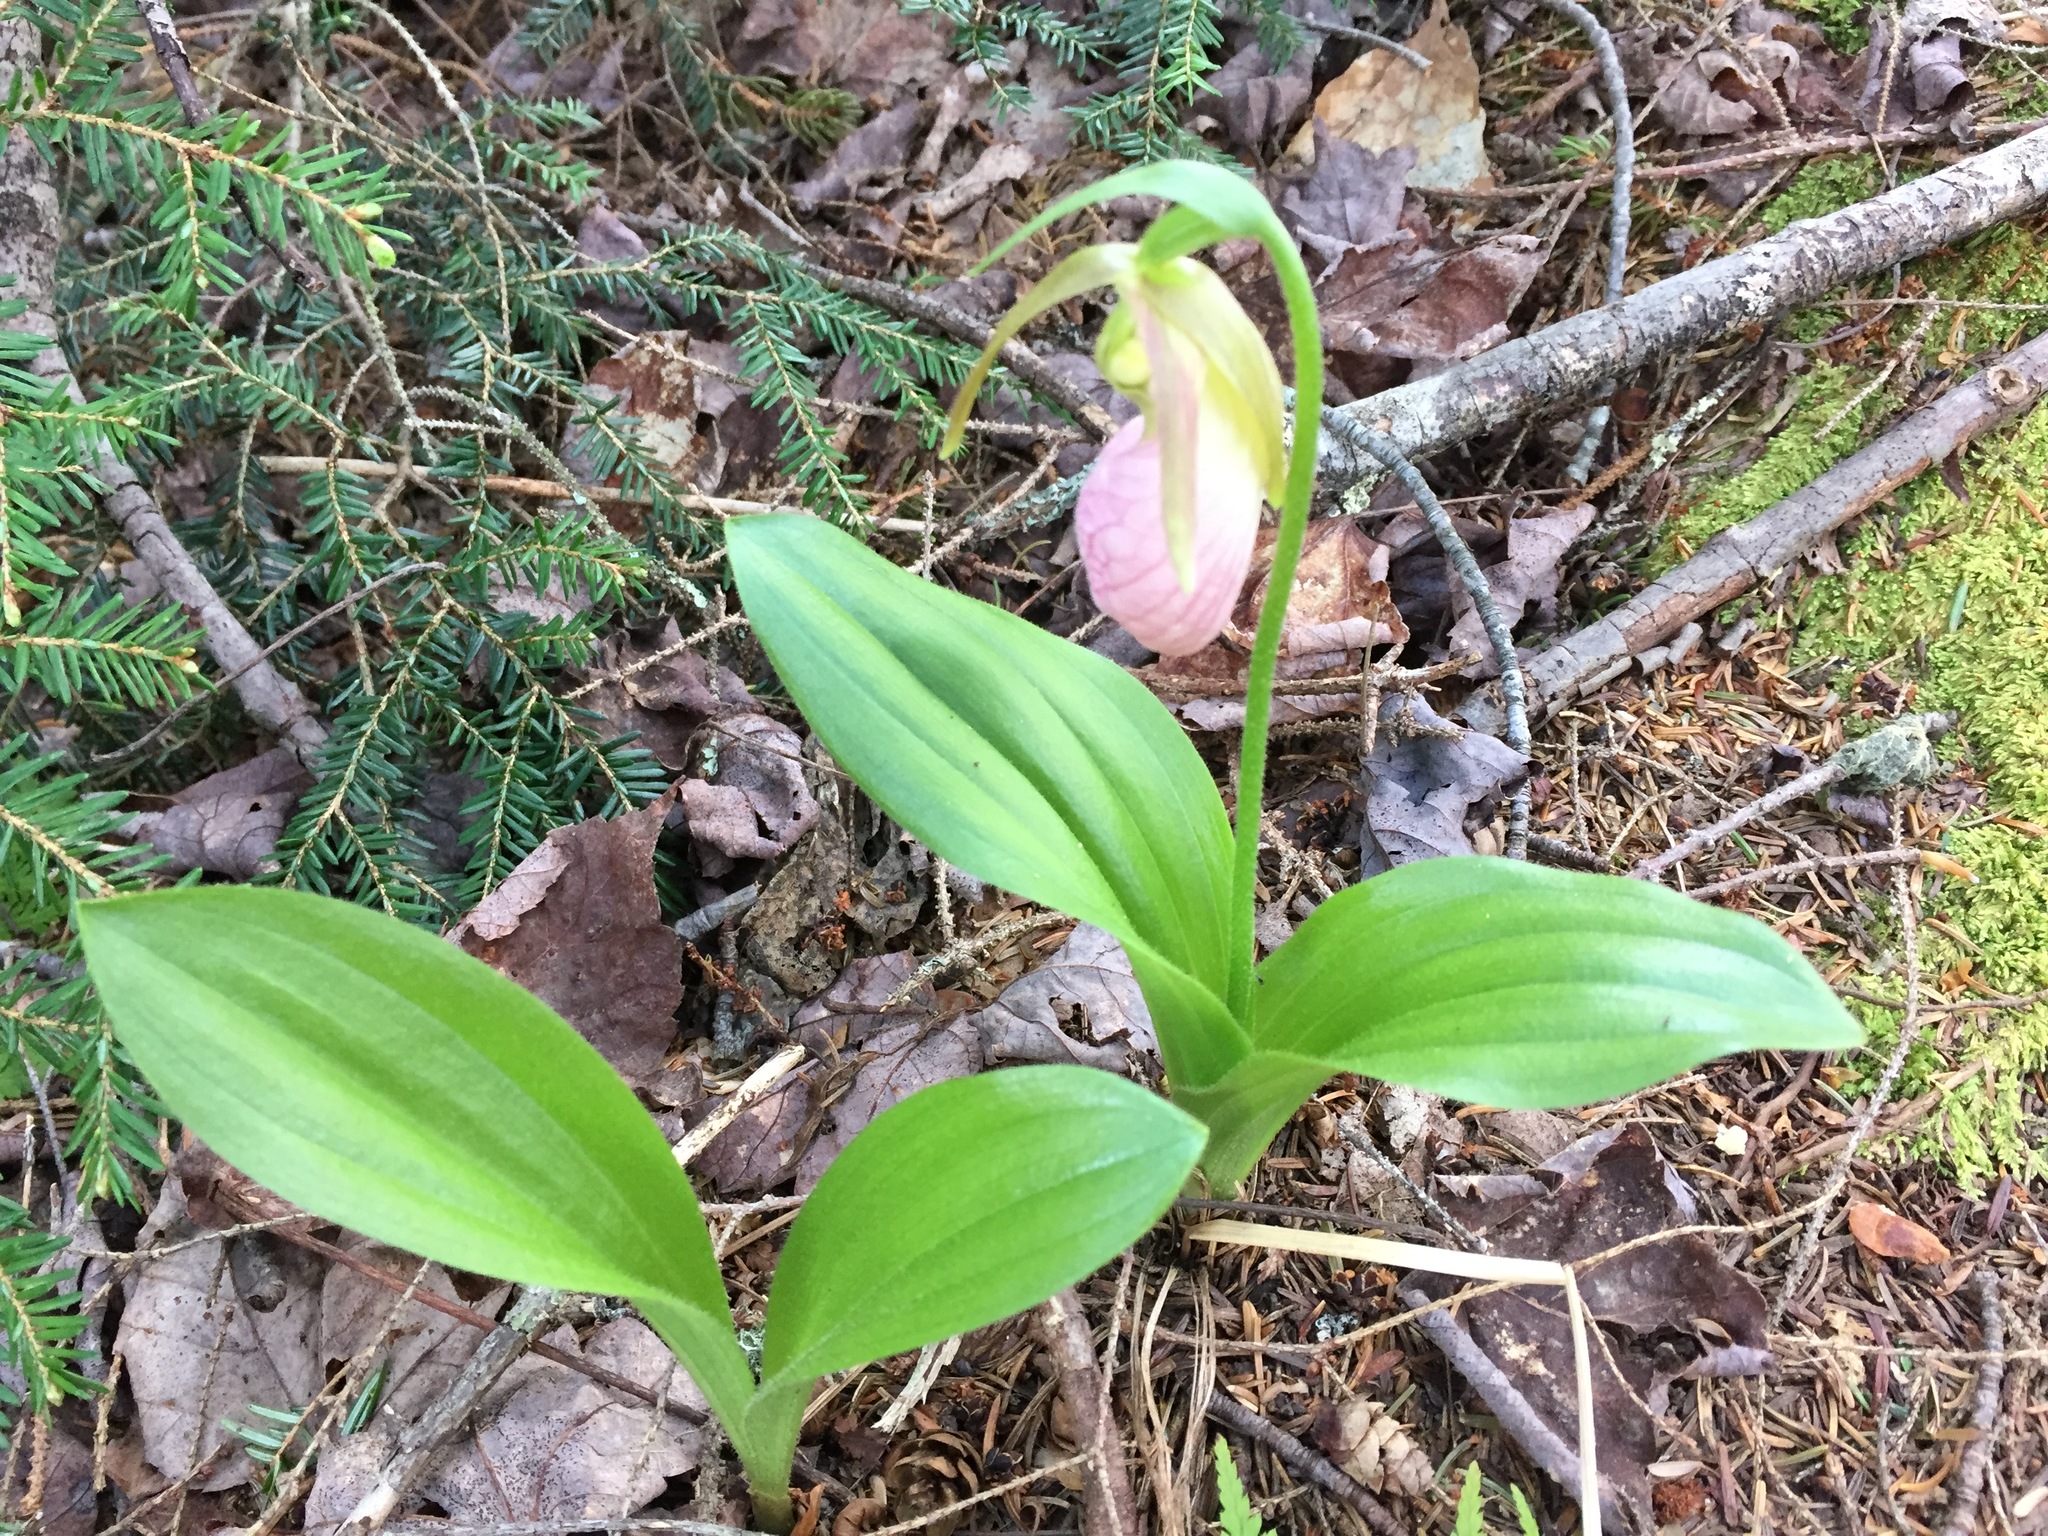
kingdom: Plantae
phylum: Tracheophyta
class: Liliopsida
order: Asparagales
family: Orchidaceae
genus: Cypripedium
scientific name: Cypripedium acaule
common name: Pink lady's-slipper
